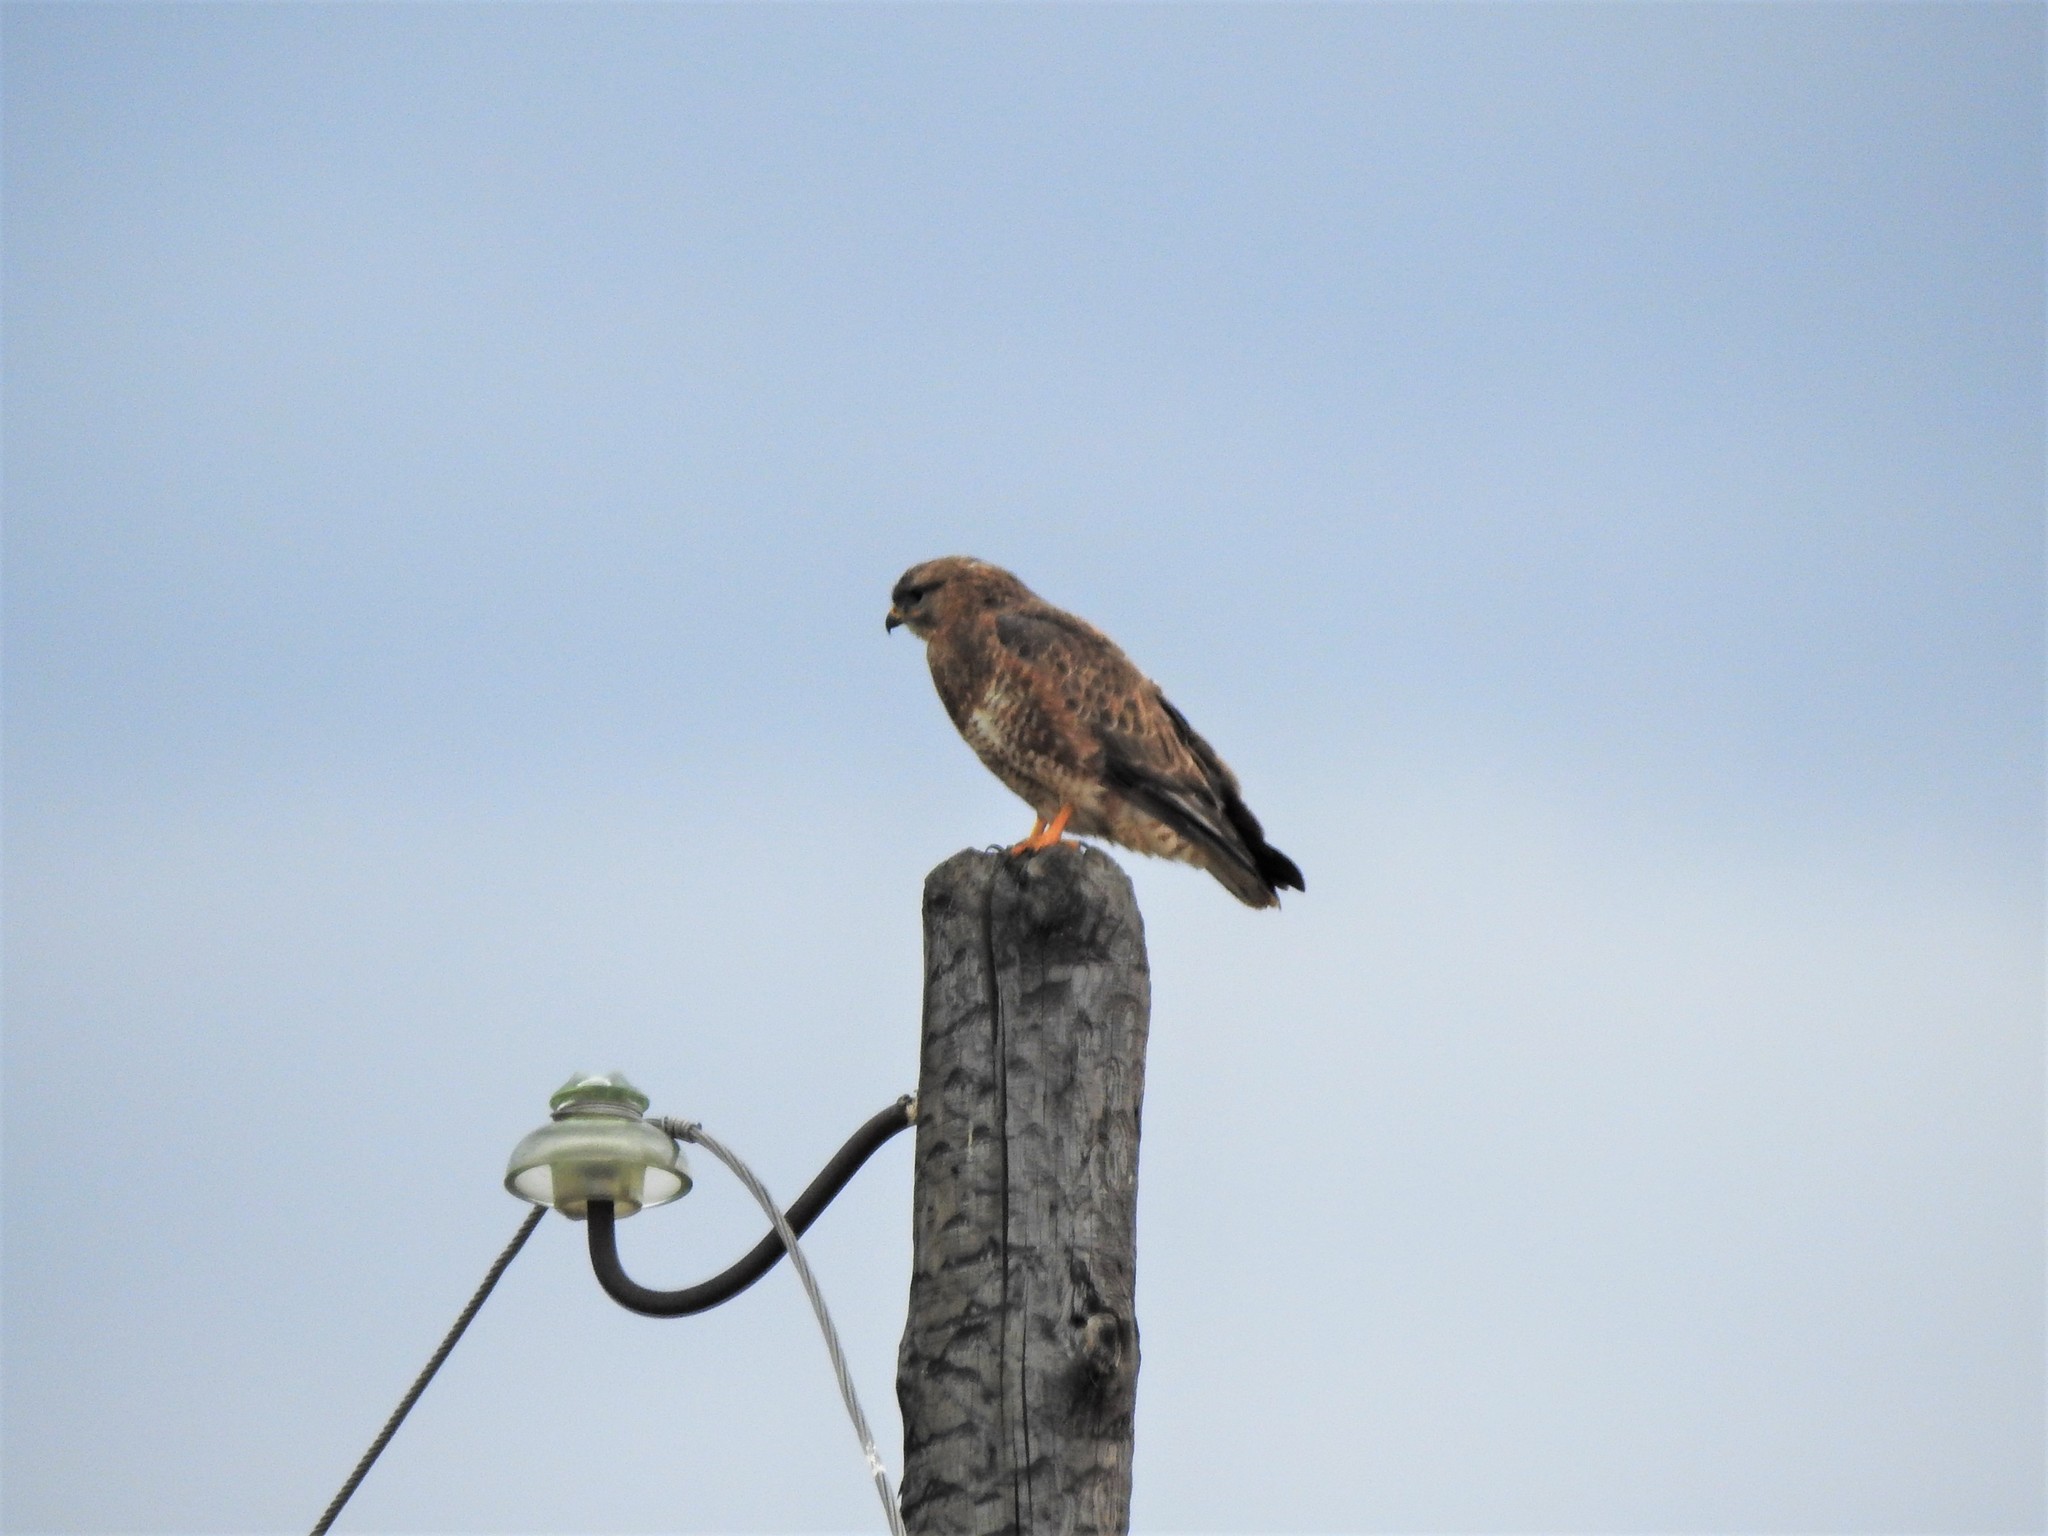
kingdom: Animalia
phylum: Chordata
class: Aves
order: Accipitriformes
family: Accipitridae
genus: Buteo
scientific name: Buteo buteo
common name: Common buzzard
